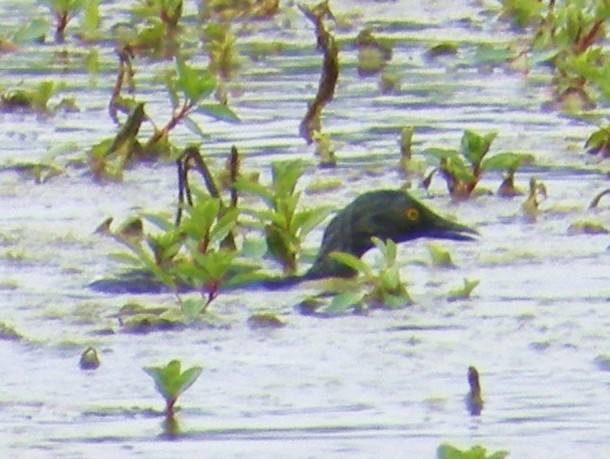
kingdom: Animalia
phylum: Chordata
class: Aves
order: Podicipediformes
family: Podicipedidae
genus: Tachybaptus
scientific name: Tachybaptus dominicus
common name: Least grebe
